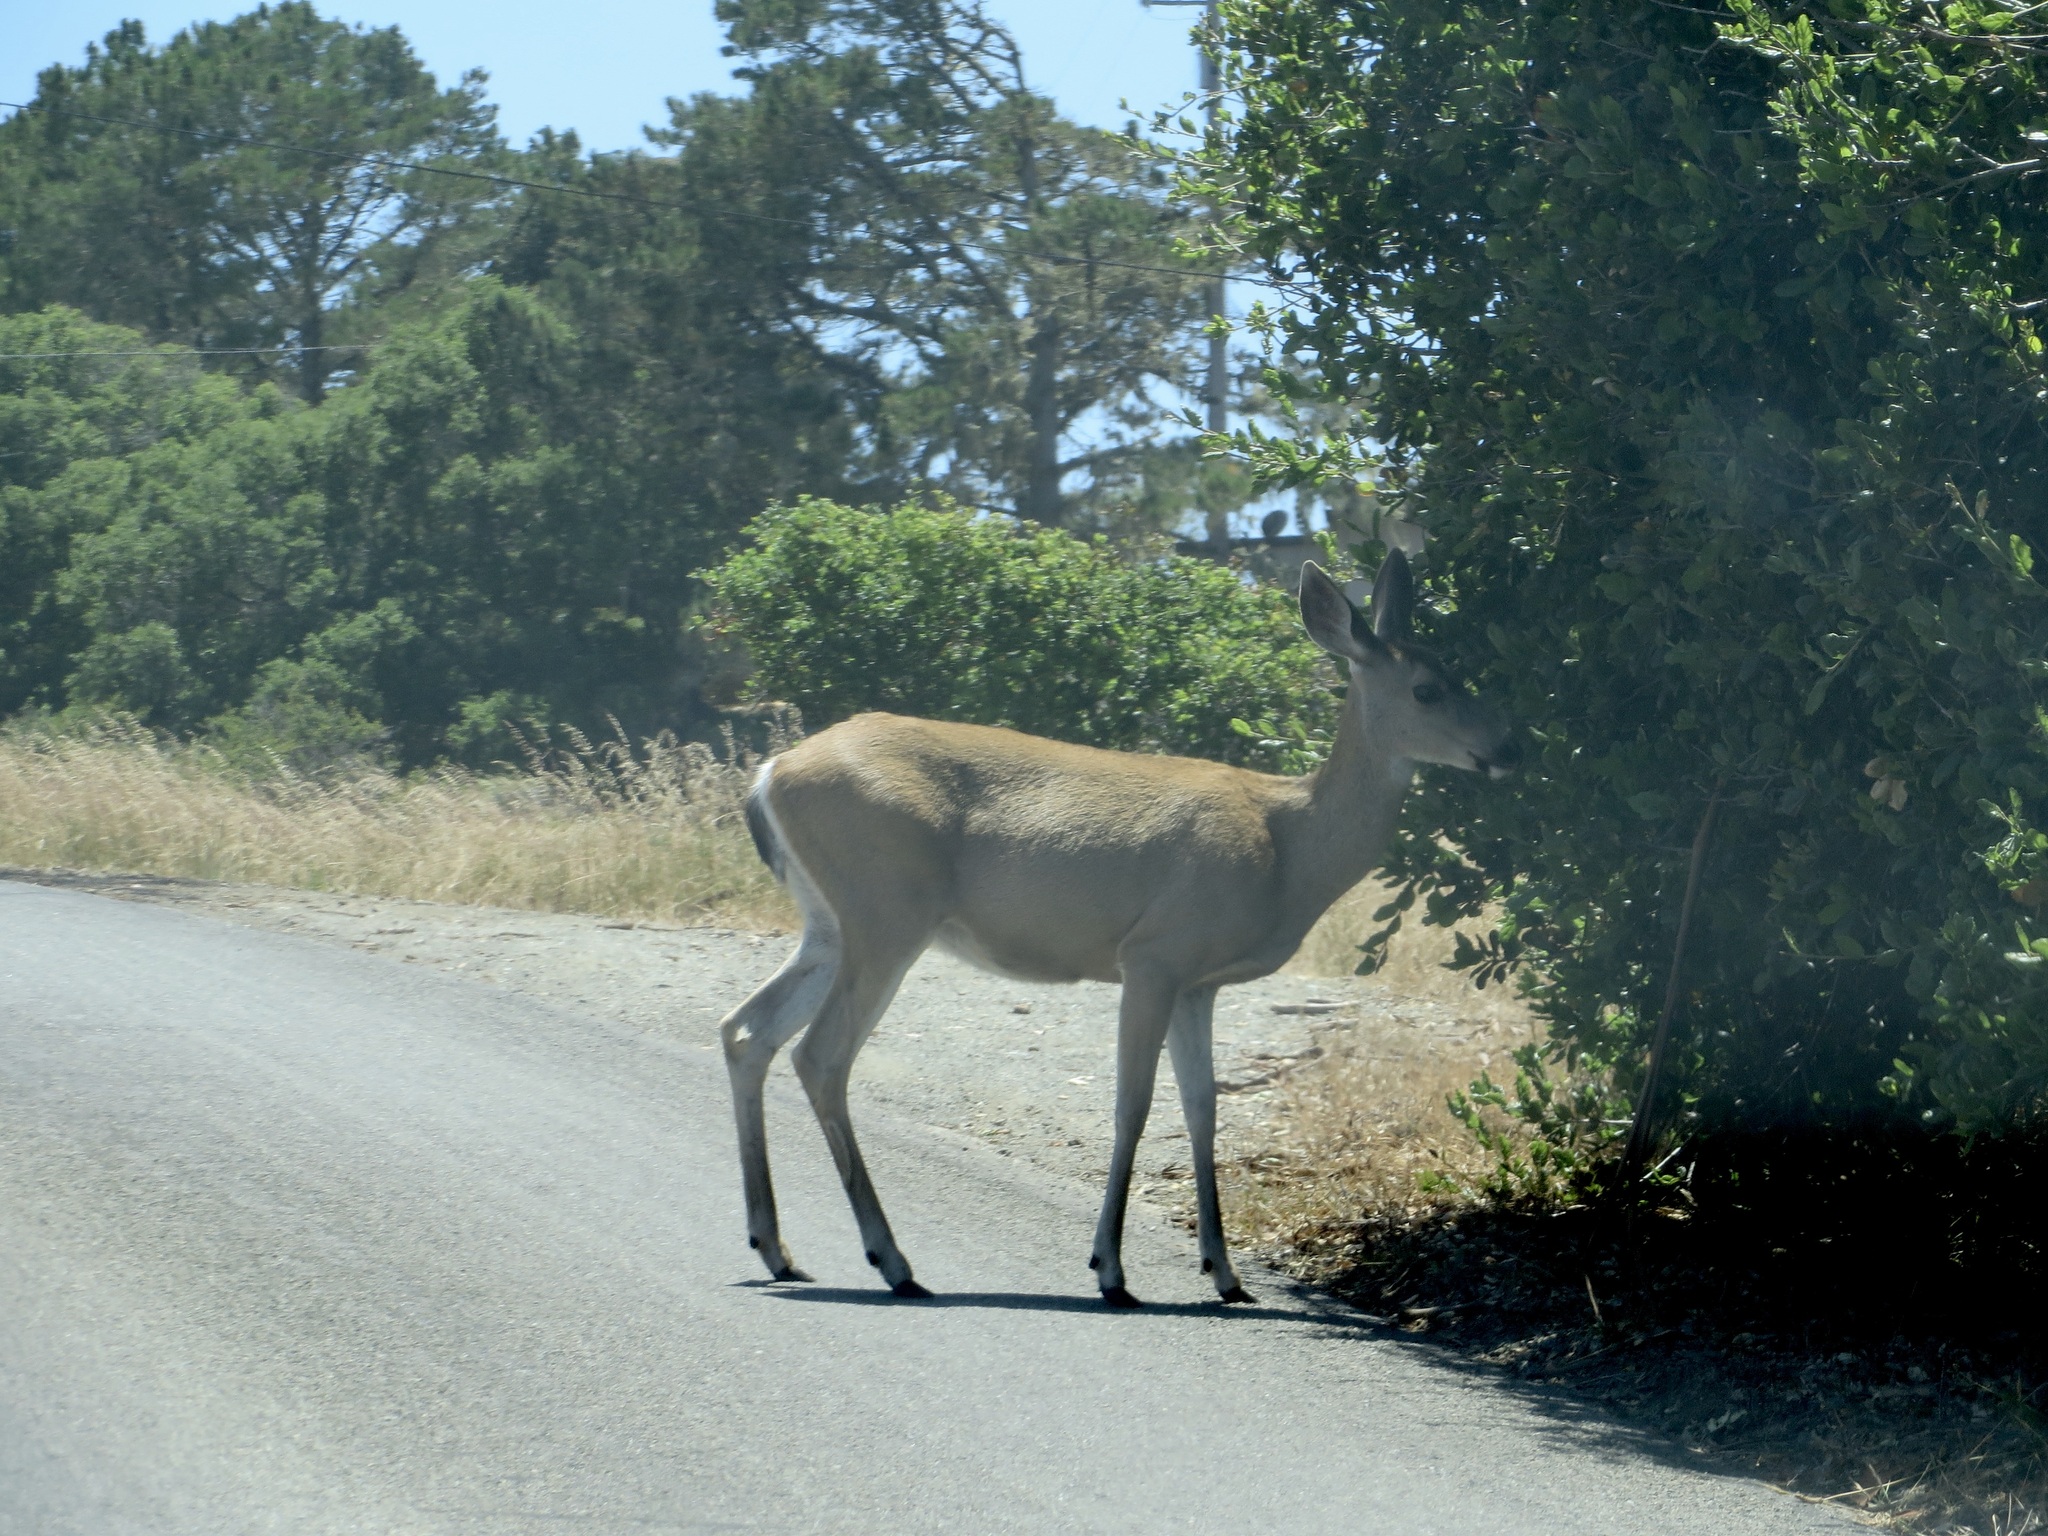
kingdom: Animalia
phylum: Chordata
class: Mammalia
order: Artiodactyla
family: Cervidae
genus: Odocoileus
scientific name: Odocoileus hemionus
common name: Mule deer
